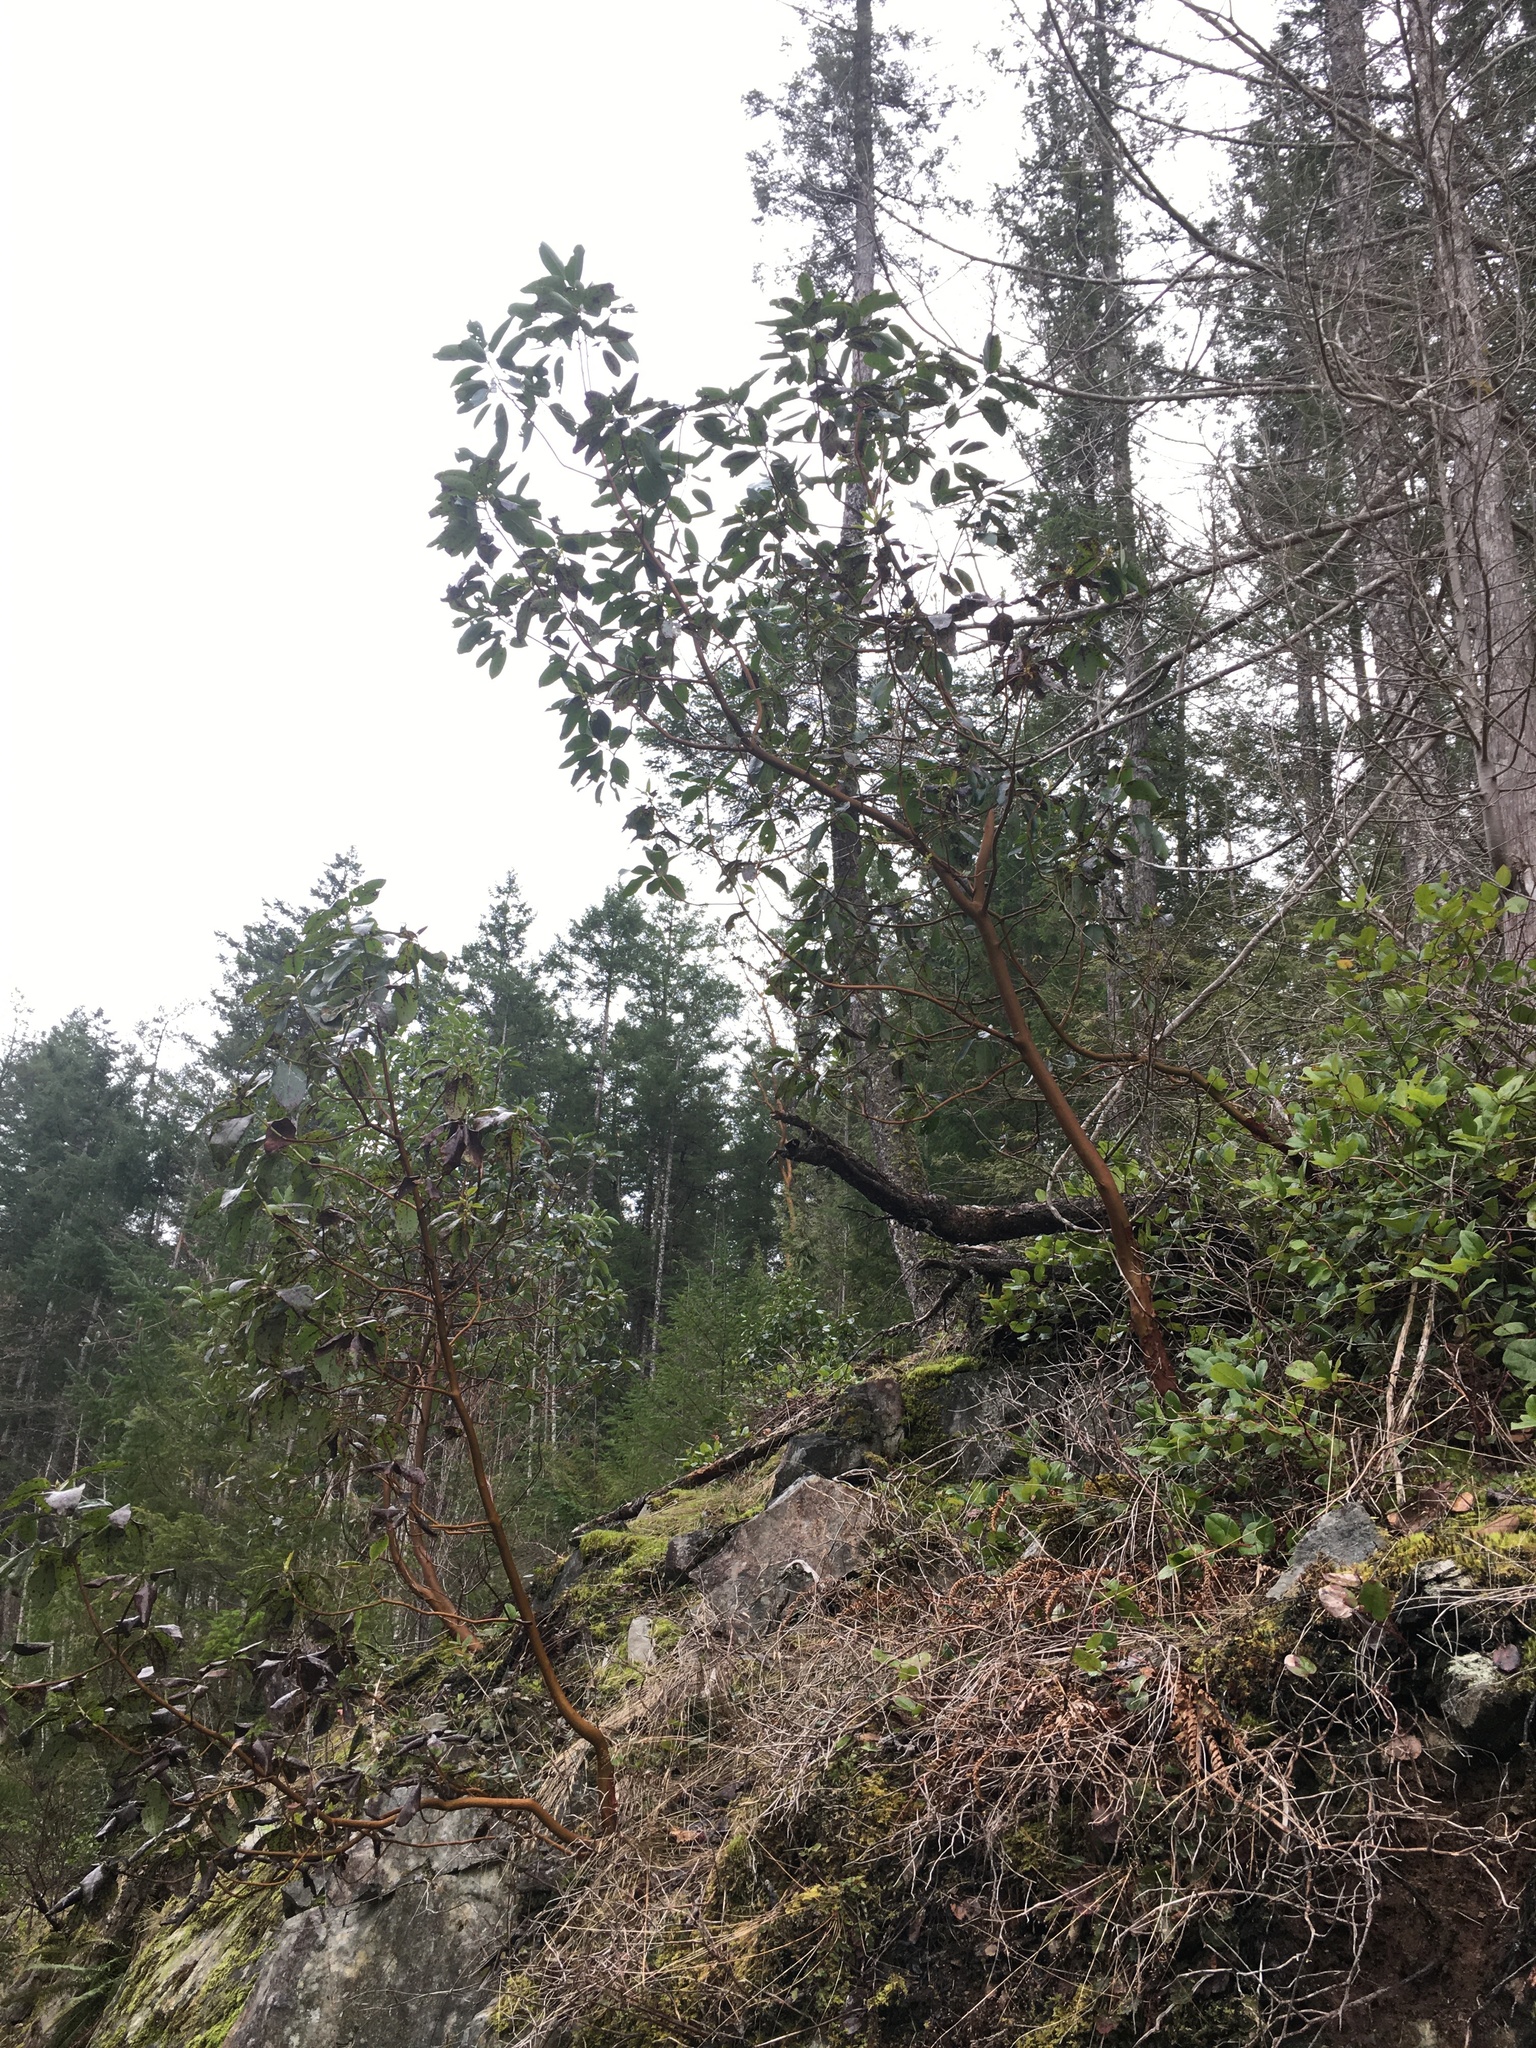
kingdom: Plantae
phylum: Tracheophyta
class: Magnoliopsida
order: Ericales
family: Ericaceae
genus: Arbutus
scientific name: Arbutus menziesii
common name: Pacific madrone
